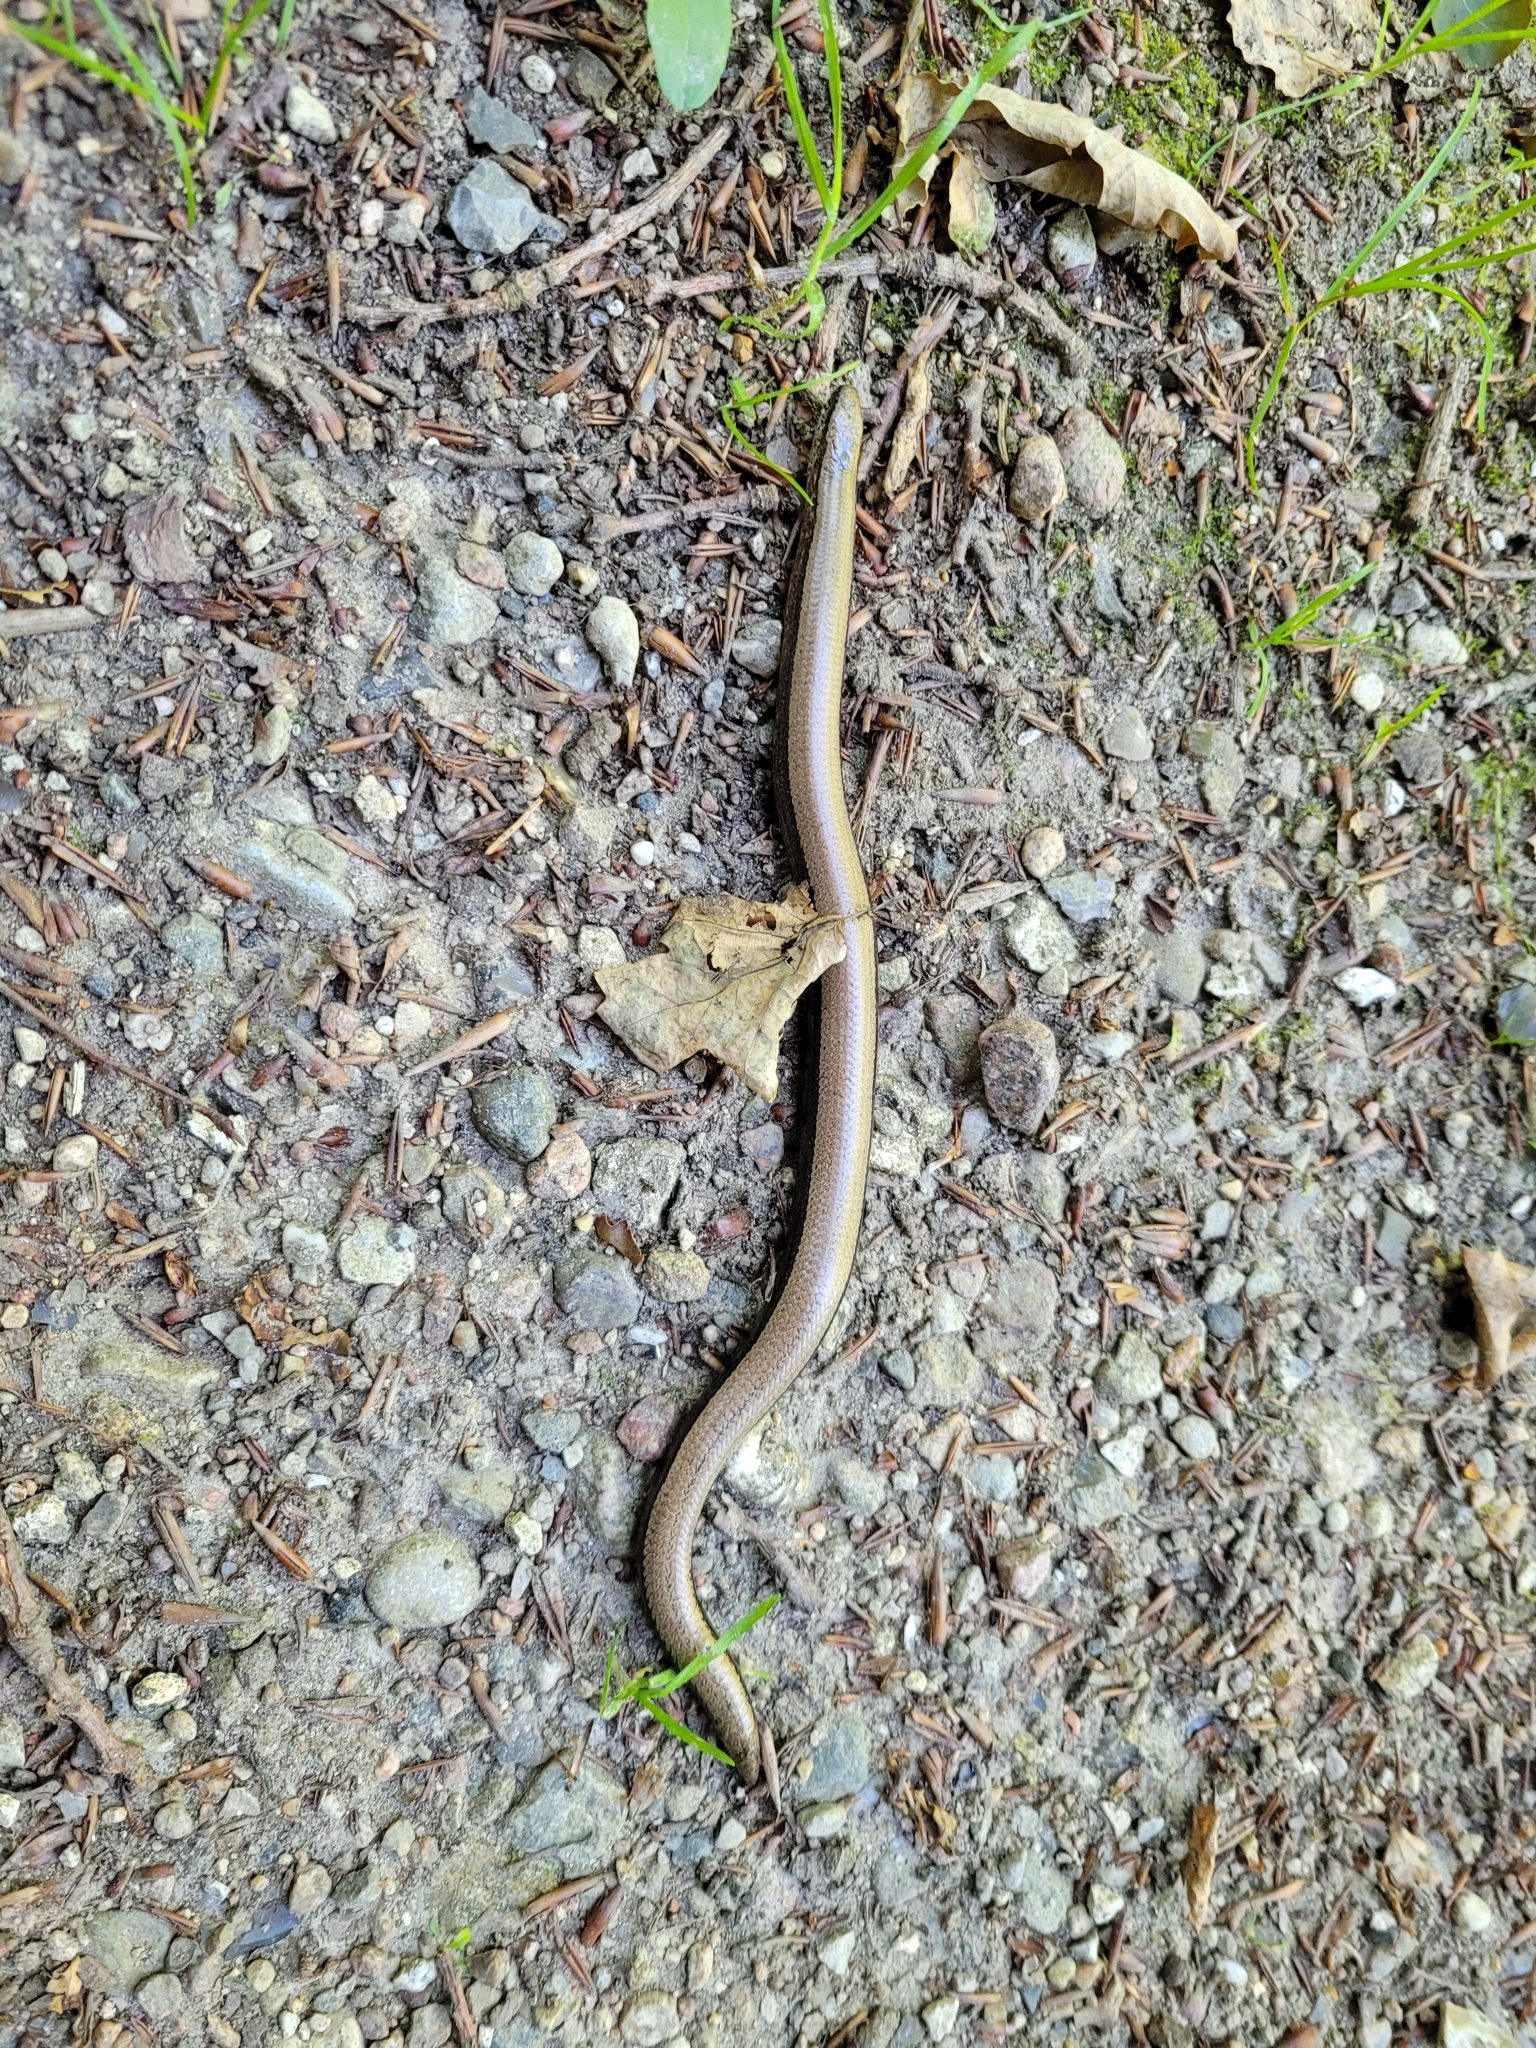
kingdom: Animalia
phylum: Chordata
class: Squamata
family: Anguidae
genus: Anguis
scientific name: Anguis fragilis
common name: Slow worm
